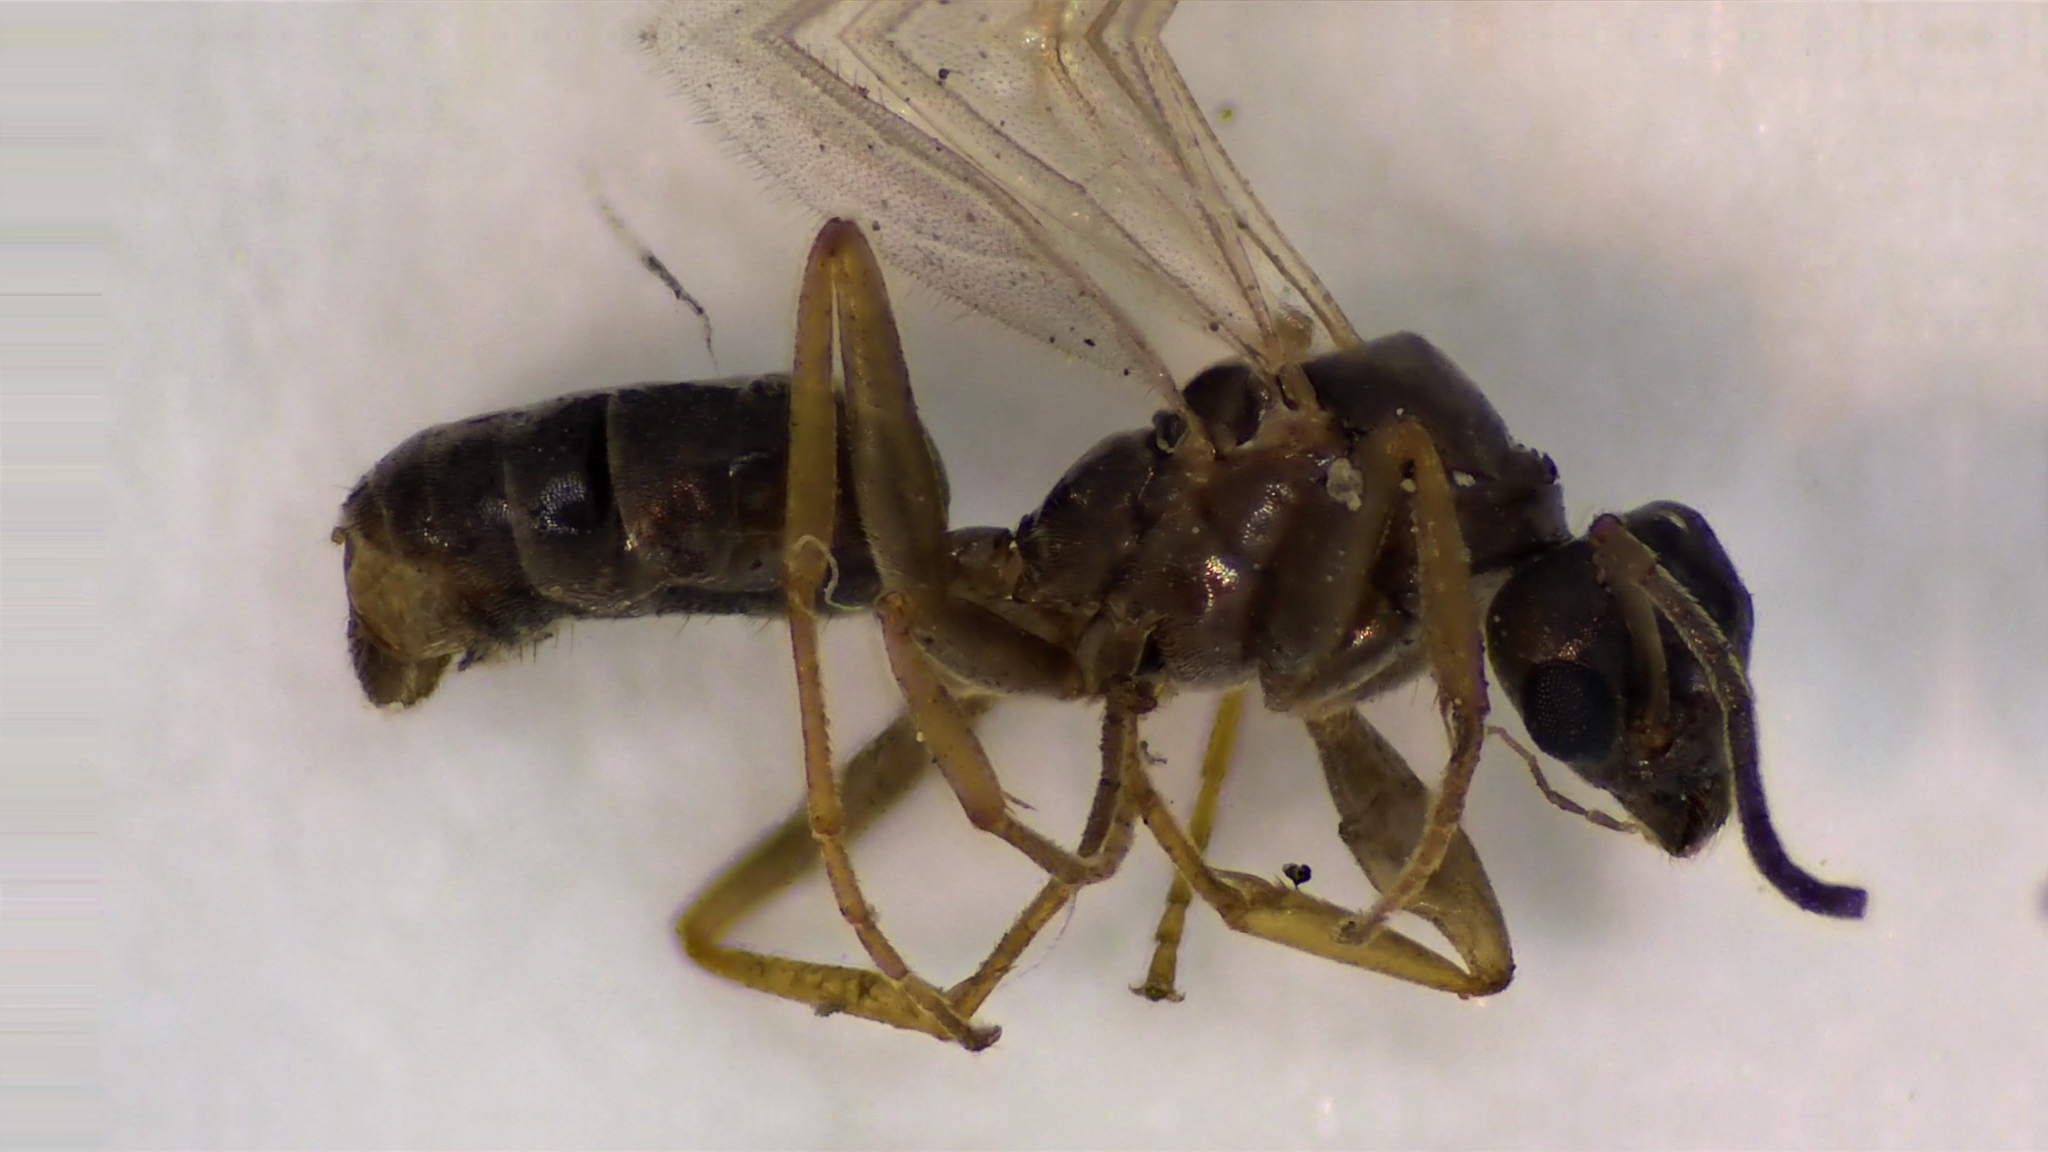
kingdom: Animalia
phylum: Arthropoda
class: Insecta
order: Hymenoptera
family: Formicidae
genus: Tapinoma
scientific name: Tapinoma sessile
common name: Odorous house ant
